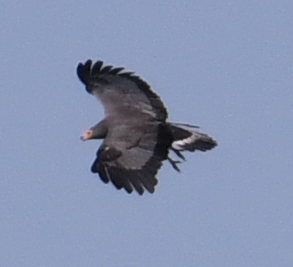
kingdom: Animalia
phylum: Chordata
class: Aves
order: Accipitriformes
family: Accipitridae
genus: Polyboroides
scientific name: Polyboroides typus
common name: African harrier-hawk
